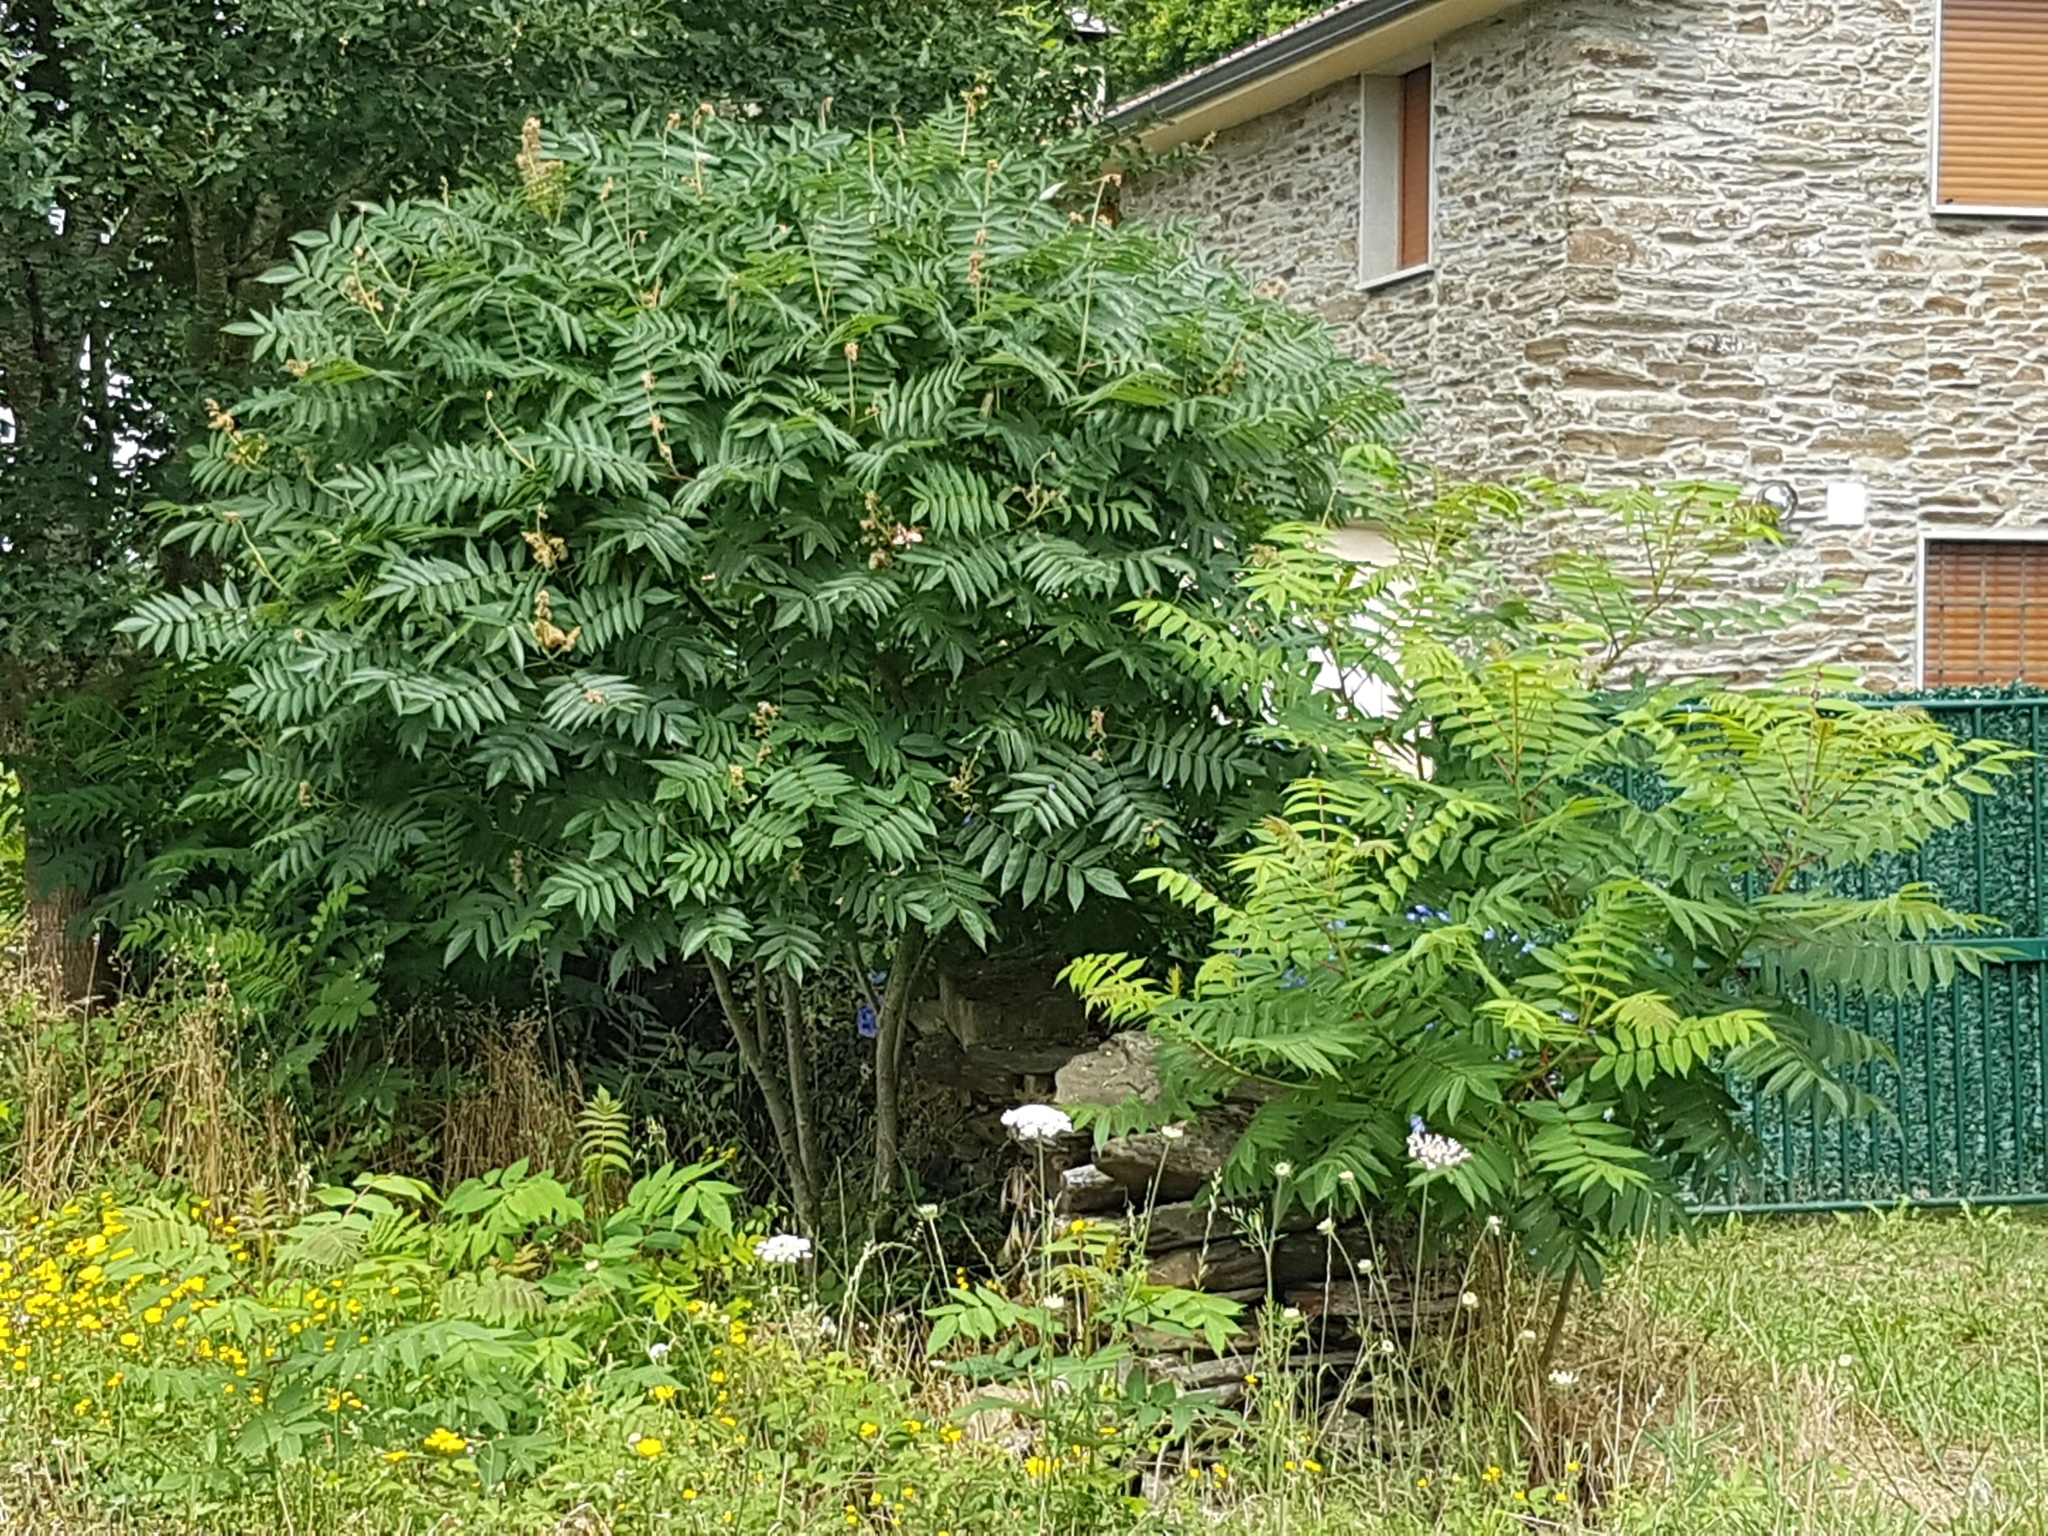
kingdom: Plantae
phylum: Tracheophyta
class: Magnoliopsida
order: Sapindales
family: Anacardiaceae
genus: Rhus
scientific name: Rhus typhina
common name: Staghorn sumac
